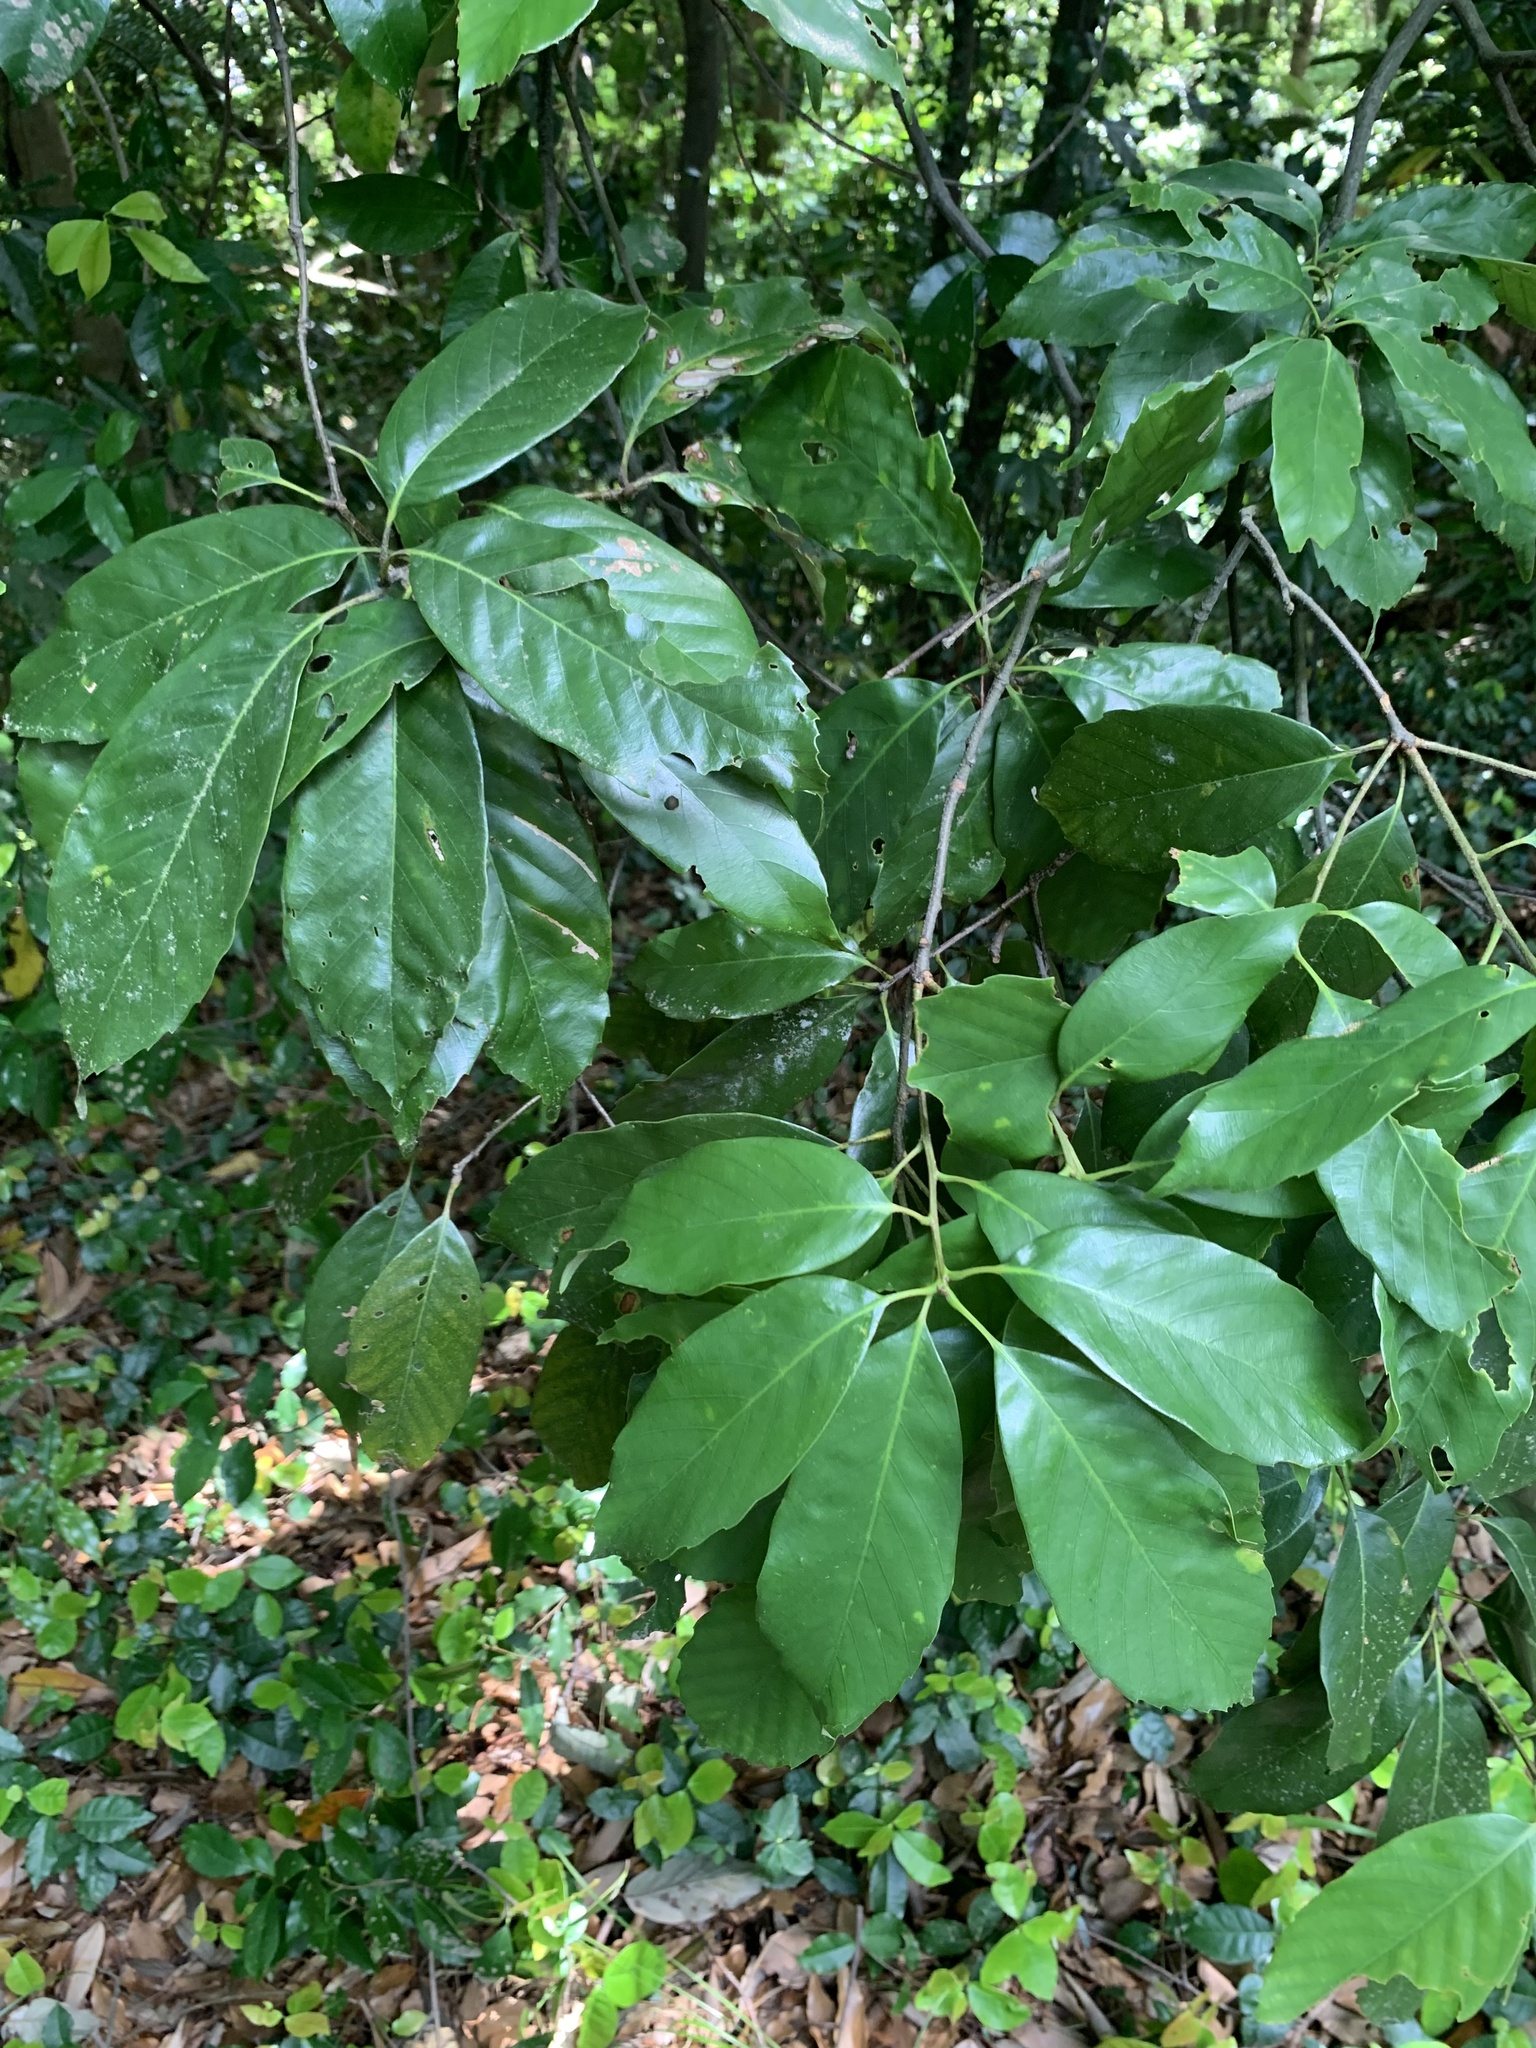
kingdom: Plantae
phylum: Tracheophyta
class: Magnoliopsida
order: Fagales
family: Fagaceae
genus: Quercus
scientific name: Quercus glauca
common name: Ring-cup oak
